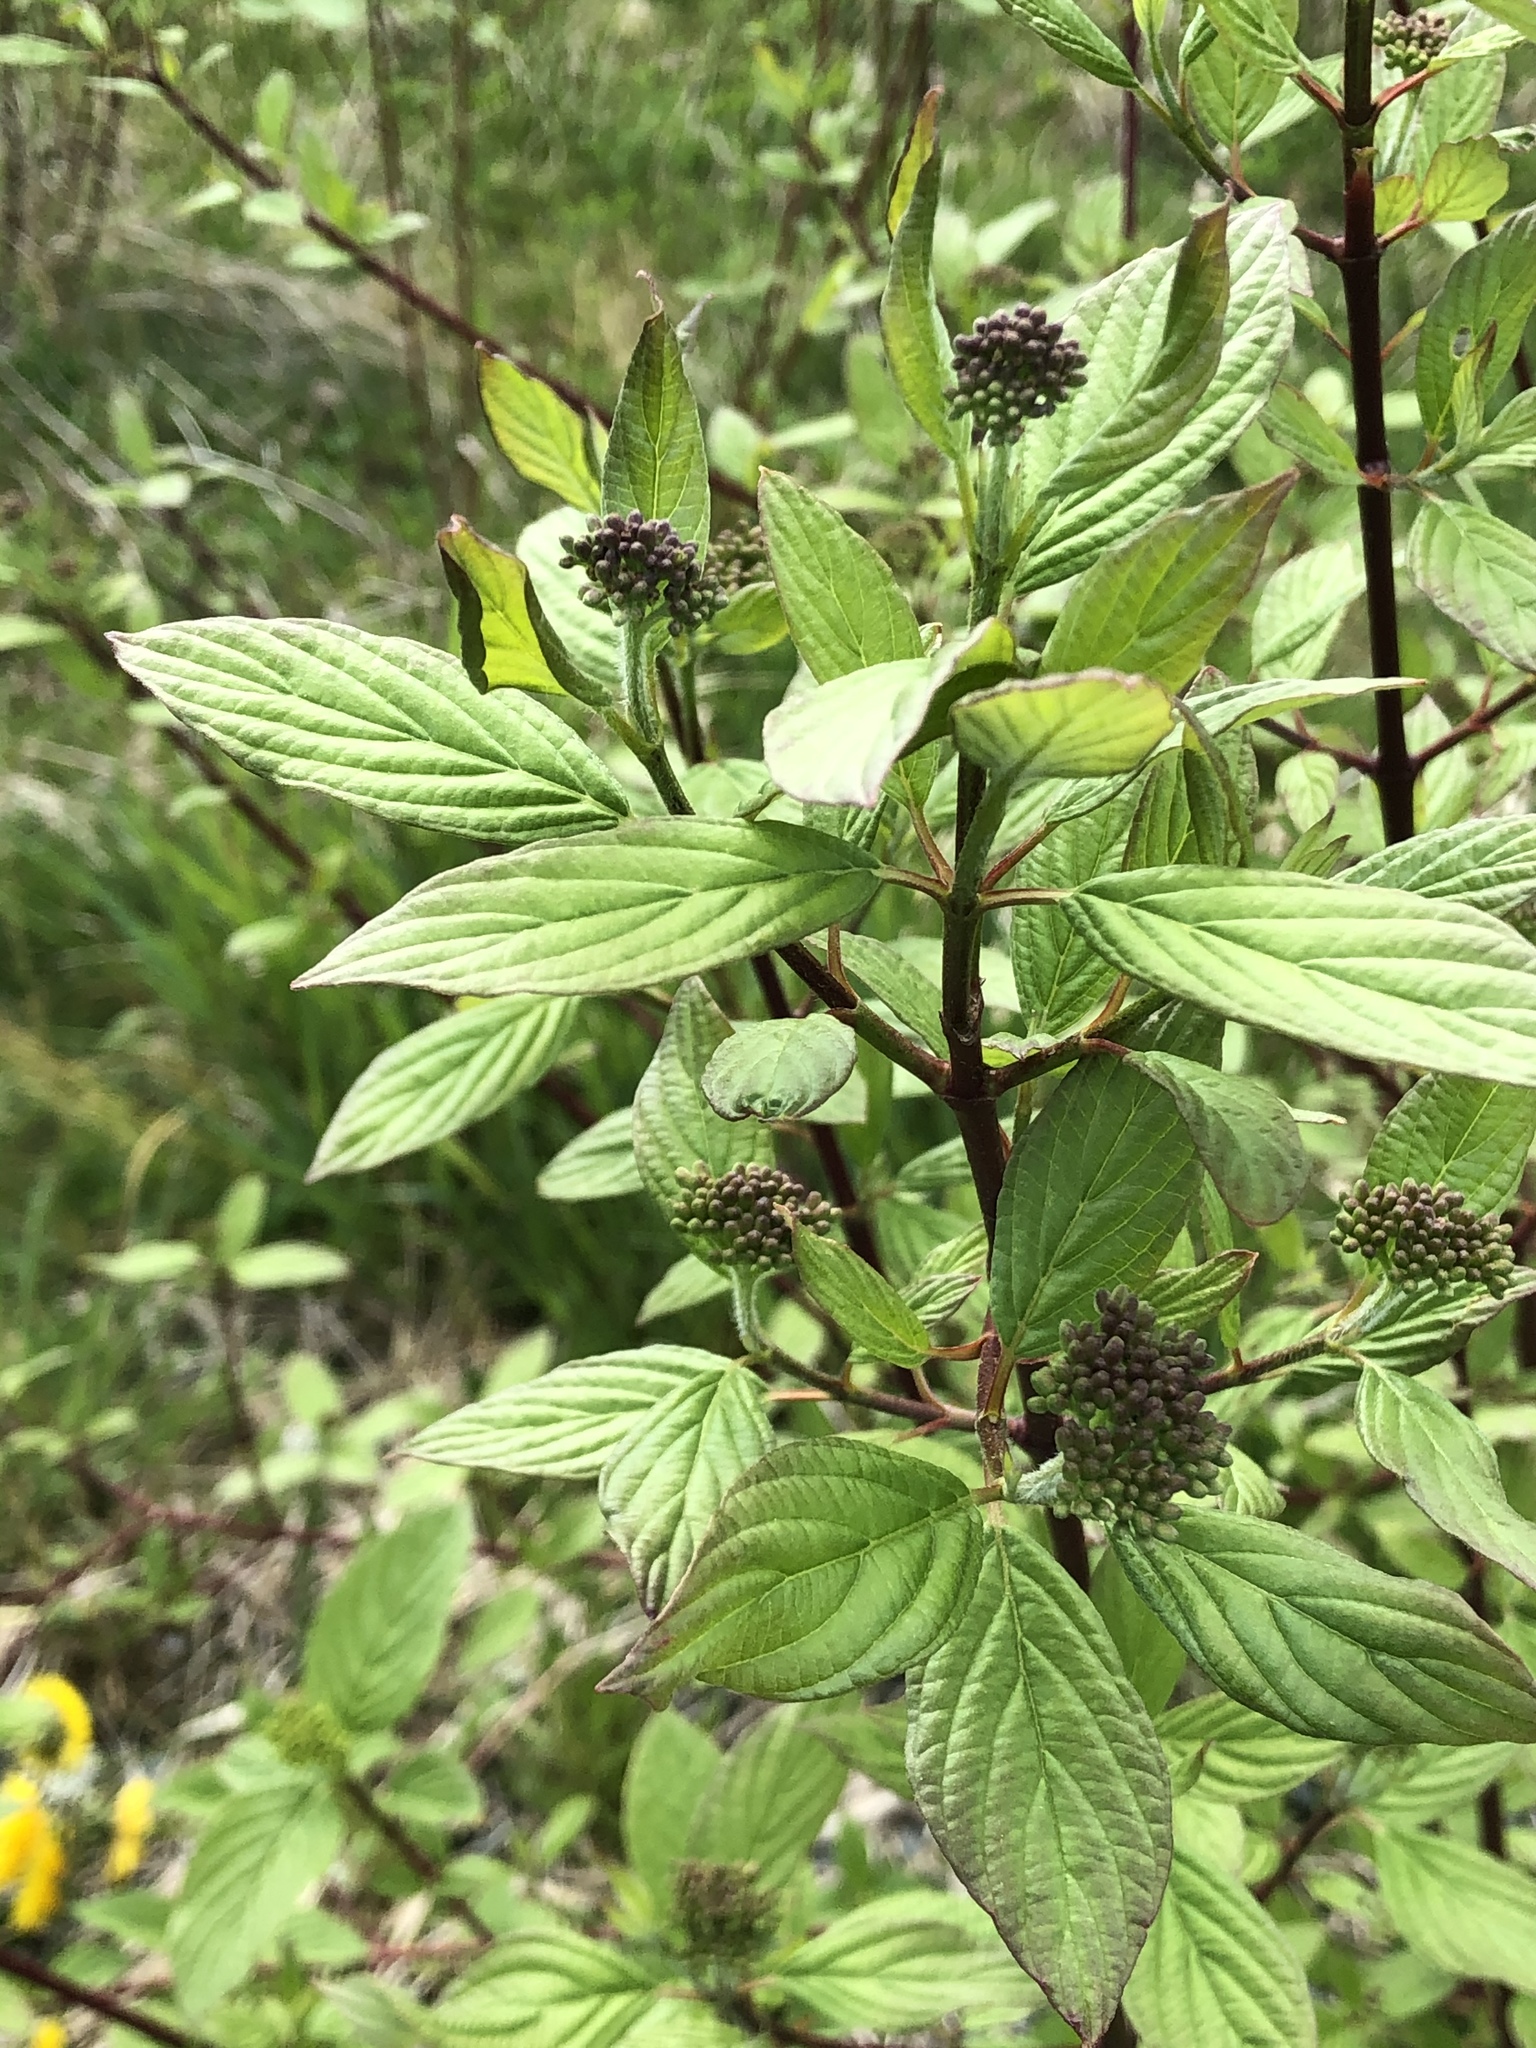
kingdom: Plantae
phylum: Tracheophyta
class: Magnoliopsida
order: Cornales
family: Cornaceae
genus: Cornus
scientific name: Cornus sericea
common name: Red-osier dogwood
